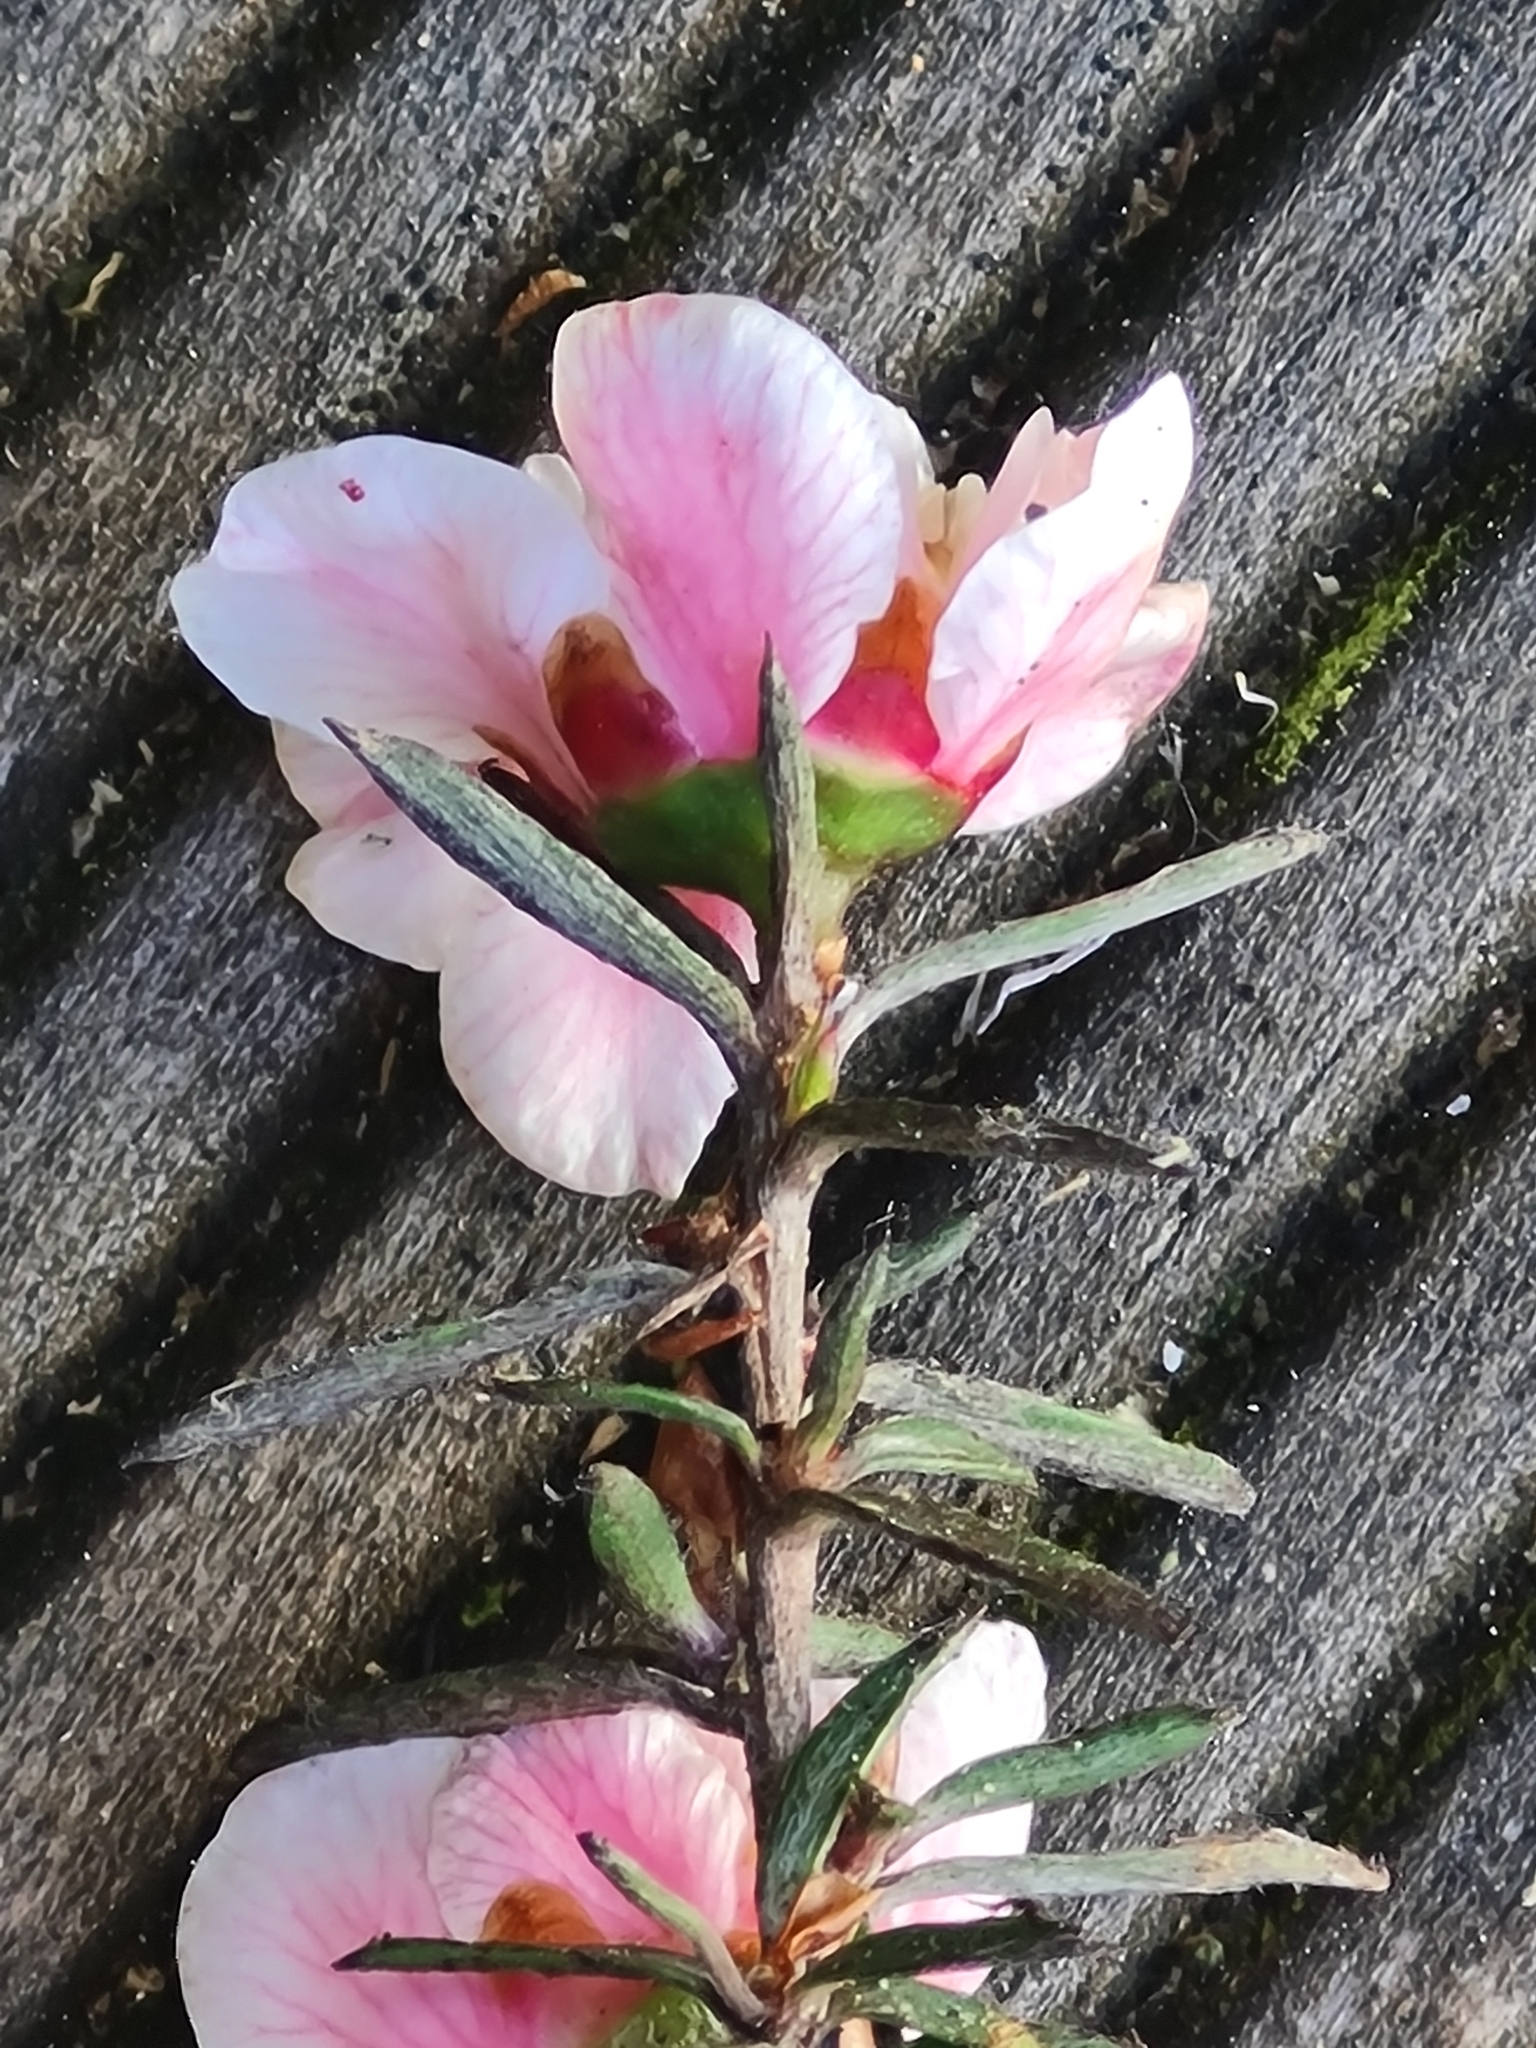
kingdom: Plantae
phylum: Tracheophyta
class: Magnoliopsida
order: Myrtales
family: Myrtaceae
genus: Leptospermum
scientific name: Leptospermum scoparium
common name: Broom tea-tree
